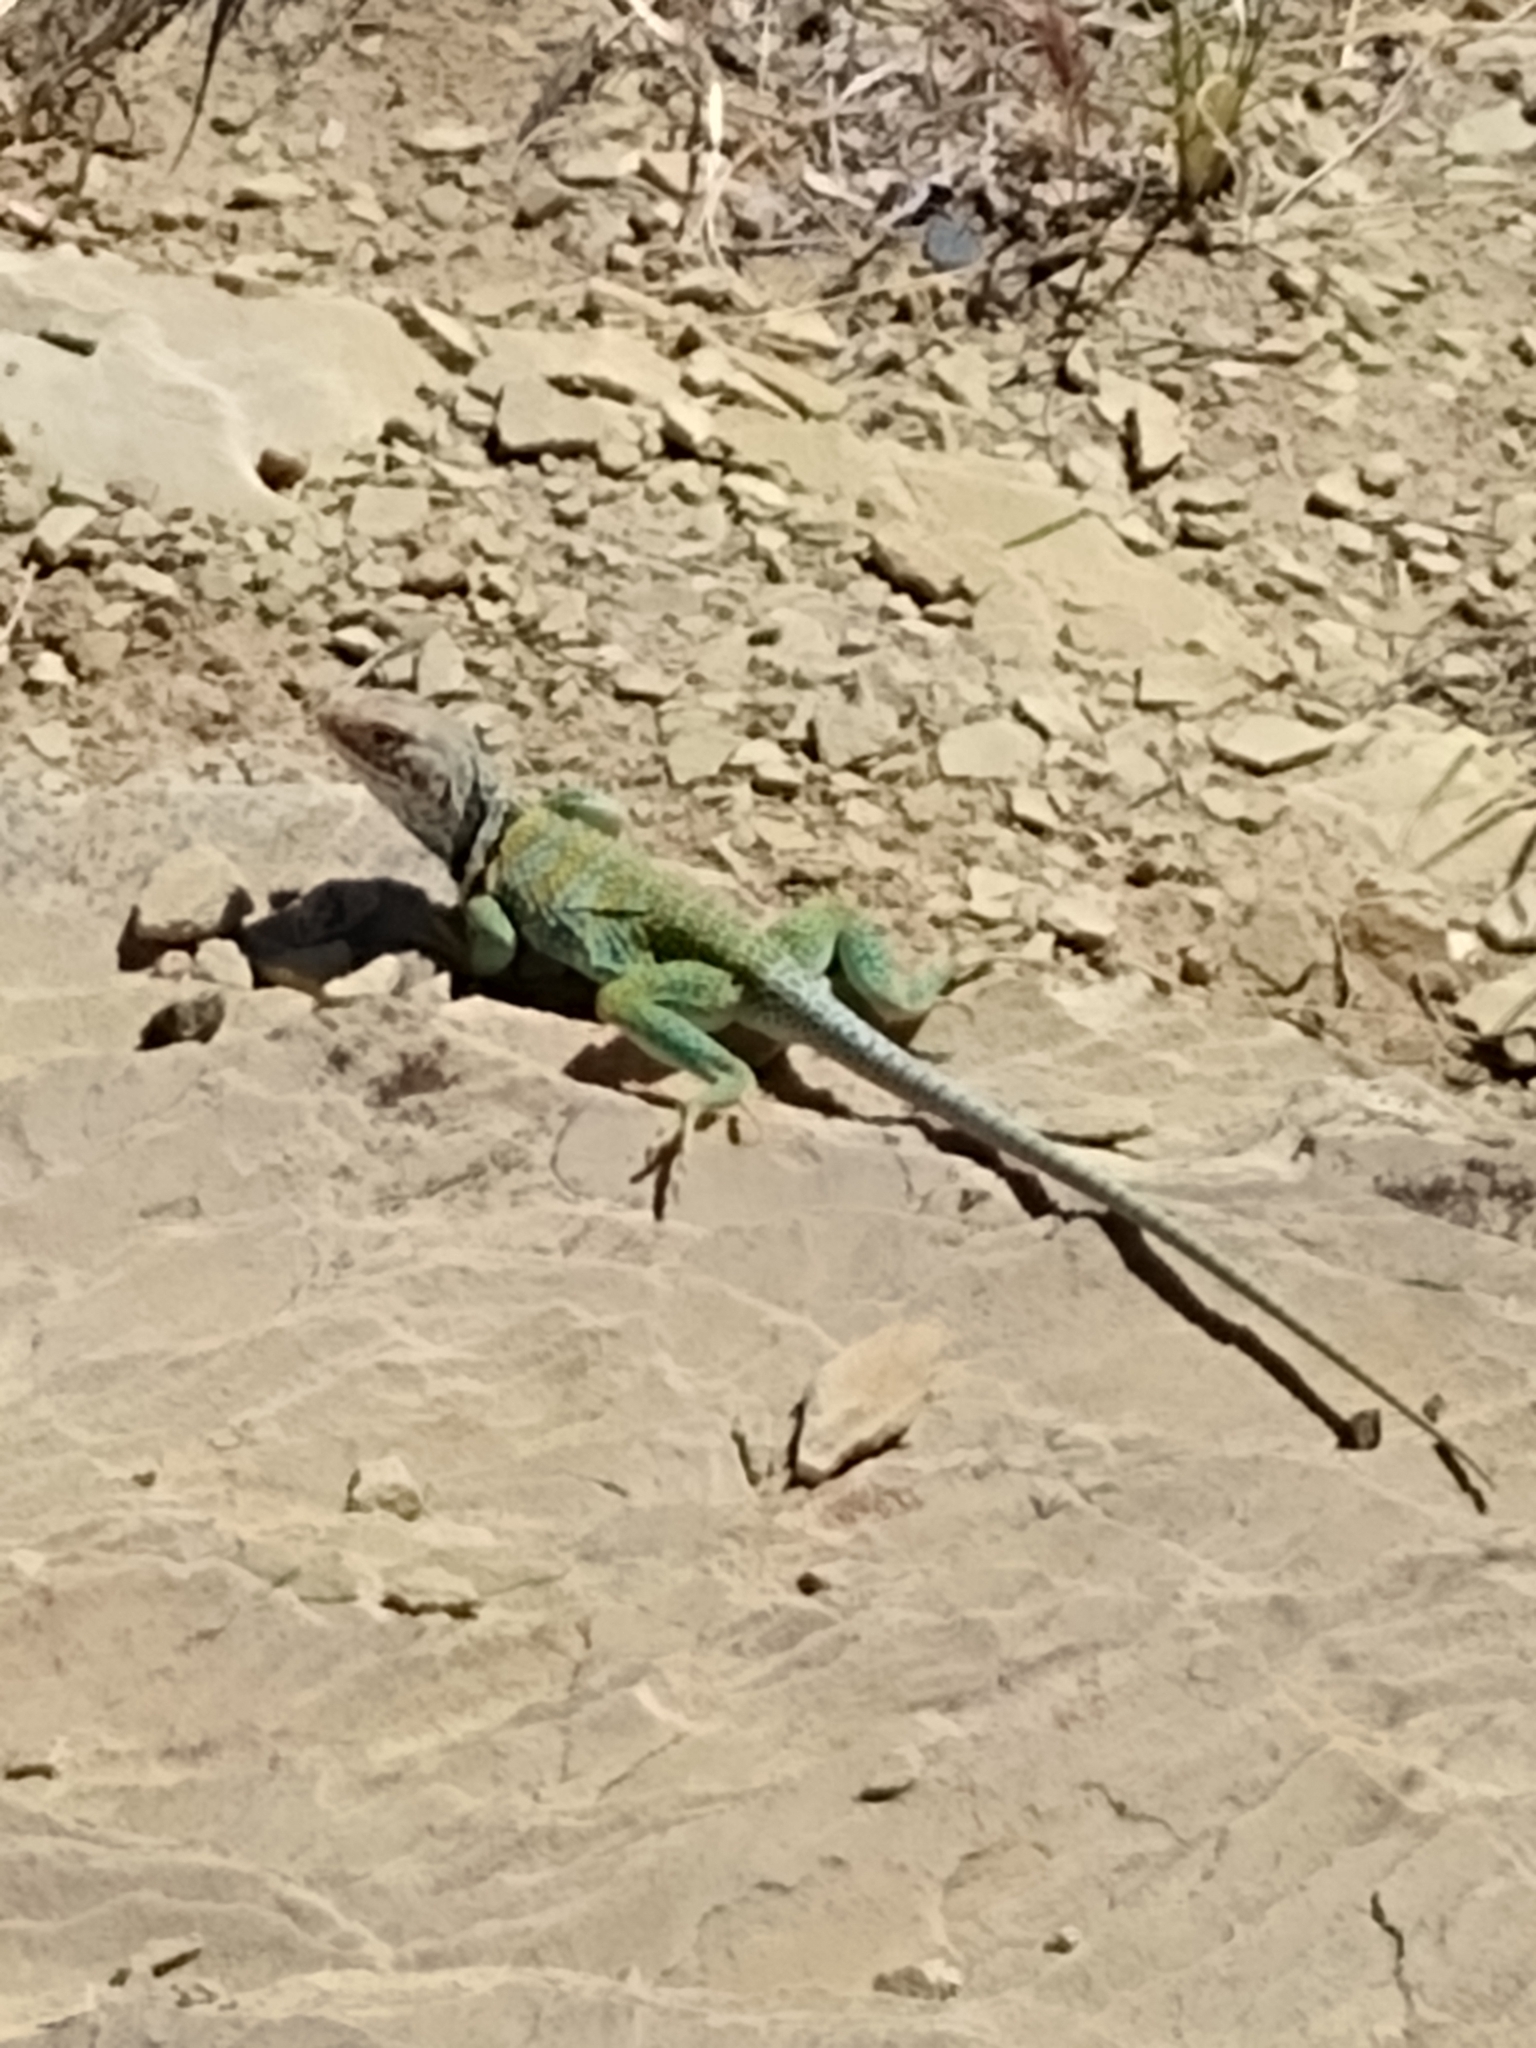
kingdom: Animalia
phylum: Chordata
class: Squamata
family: Crotaphytidae
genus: Crotaphytus
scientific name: Crotaphytus collaris
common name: Collared lizard
